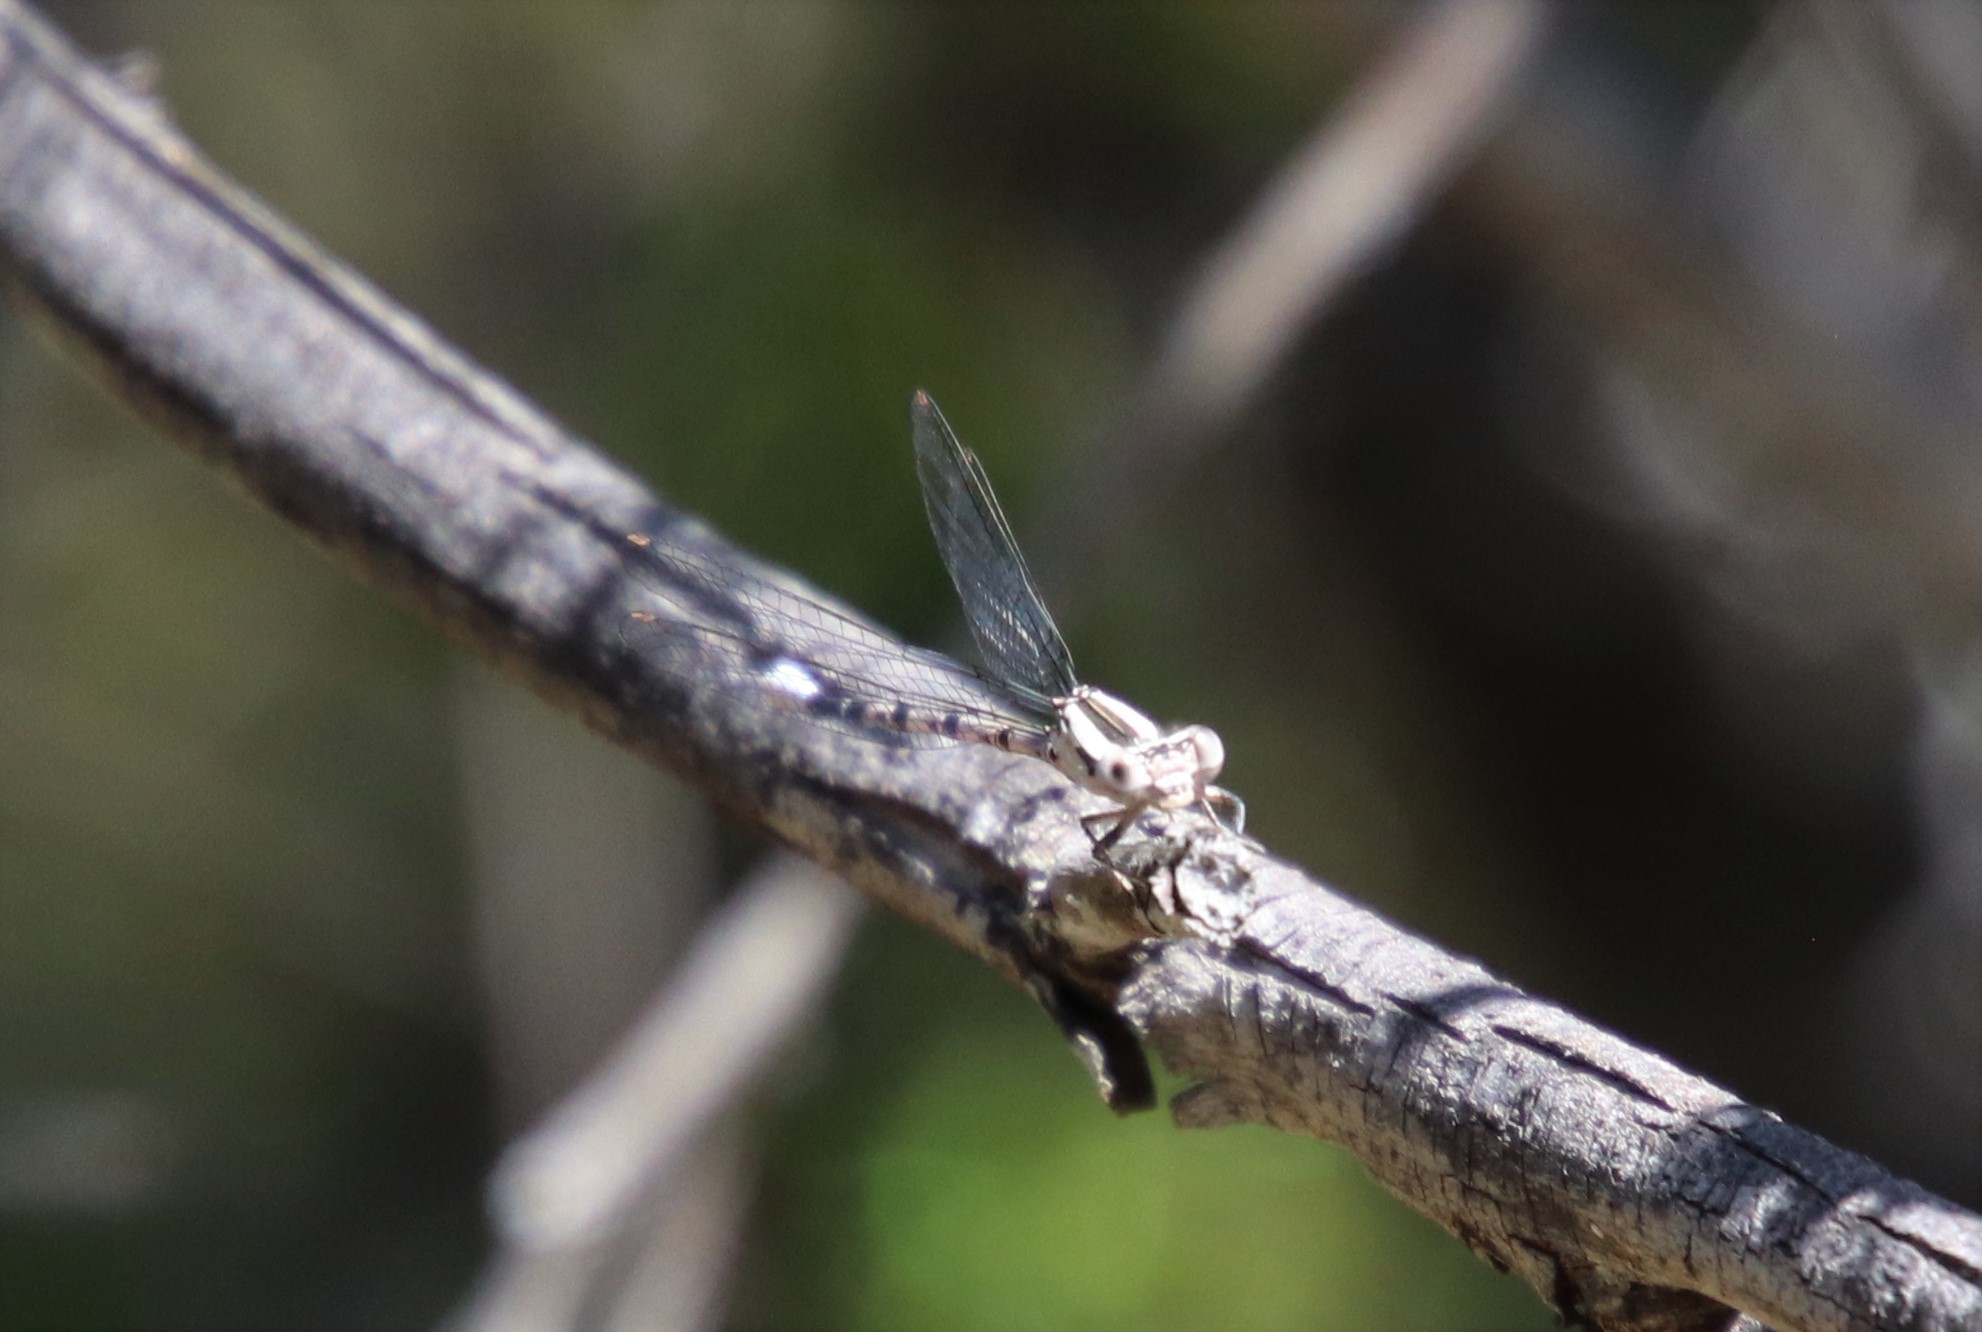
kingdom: Animalia
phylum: Arthropoda
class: Insecta
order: Odonata
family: Coenagrionidae
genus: Argia
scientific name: Argia vivida
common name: Vivid dancer
